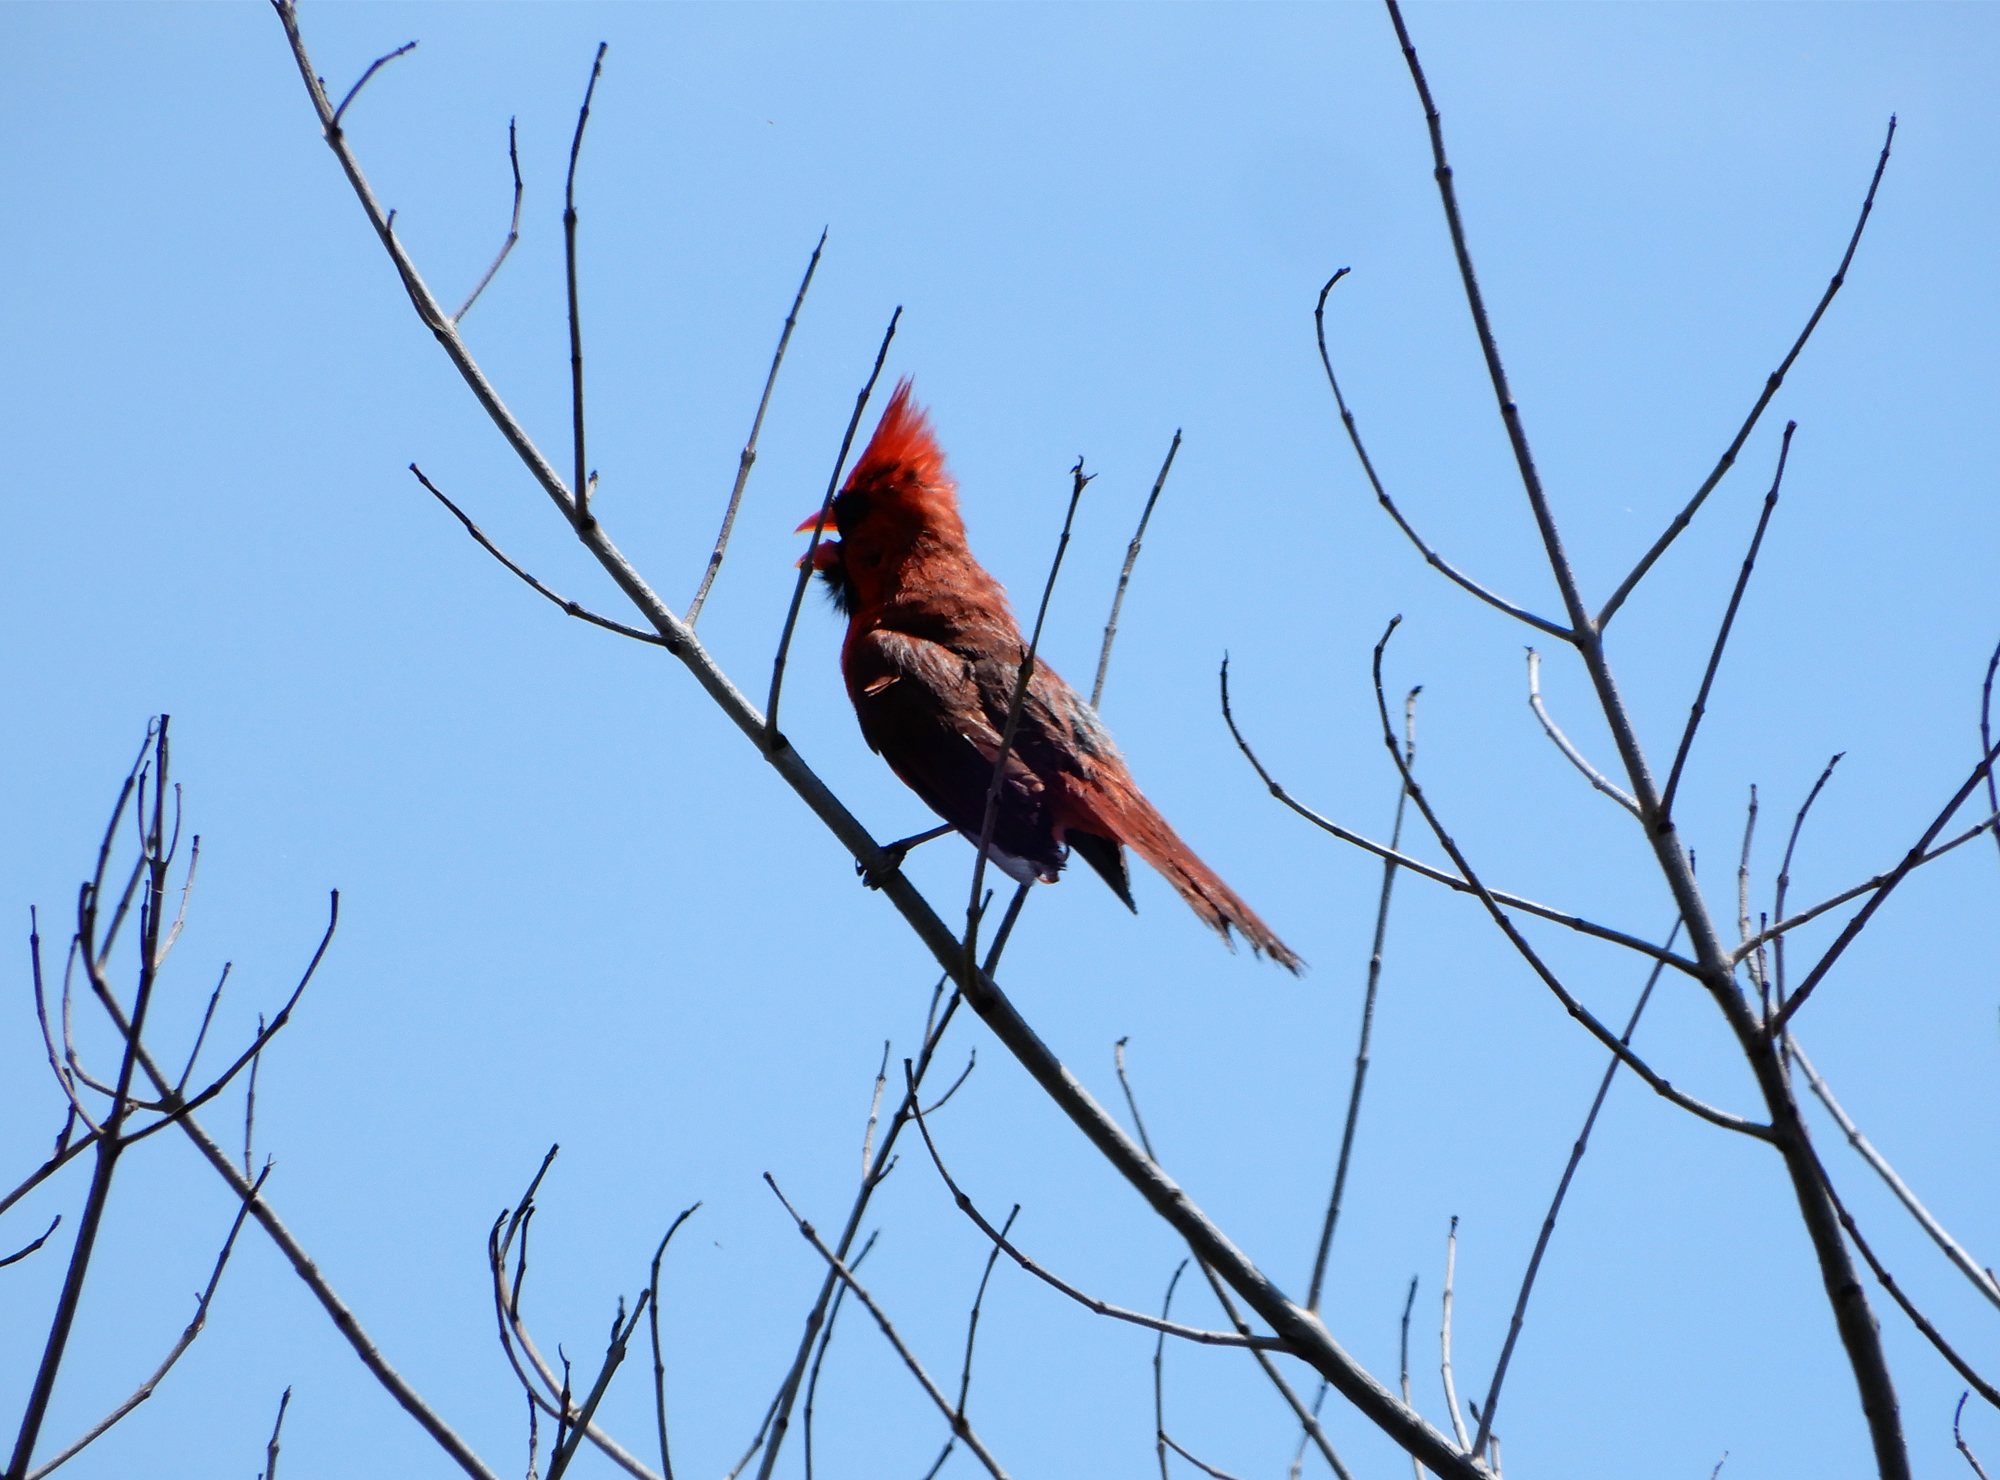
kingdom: Animalia
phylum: Chordata
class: Aves
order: Passeriformes
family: Cardinalidae
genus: Cardinalis
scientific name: Cardinalis cardinalis
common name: Northern cardinal
